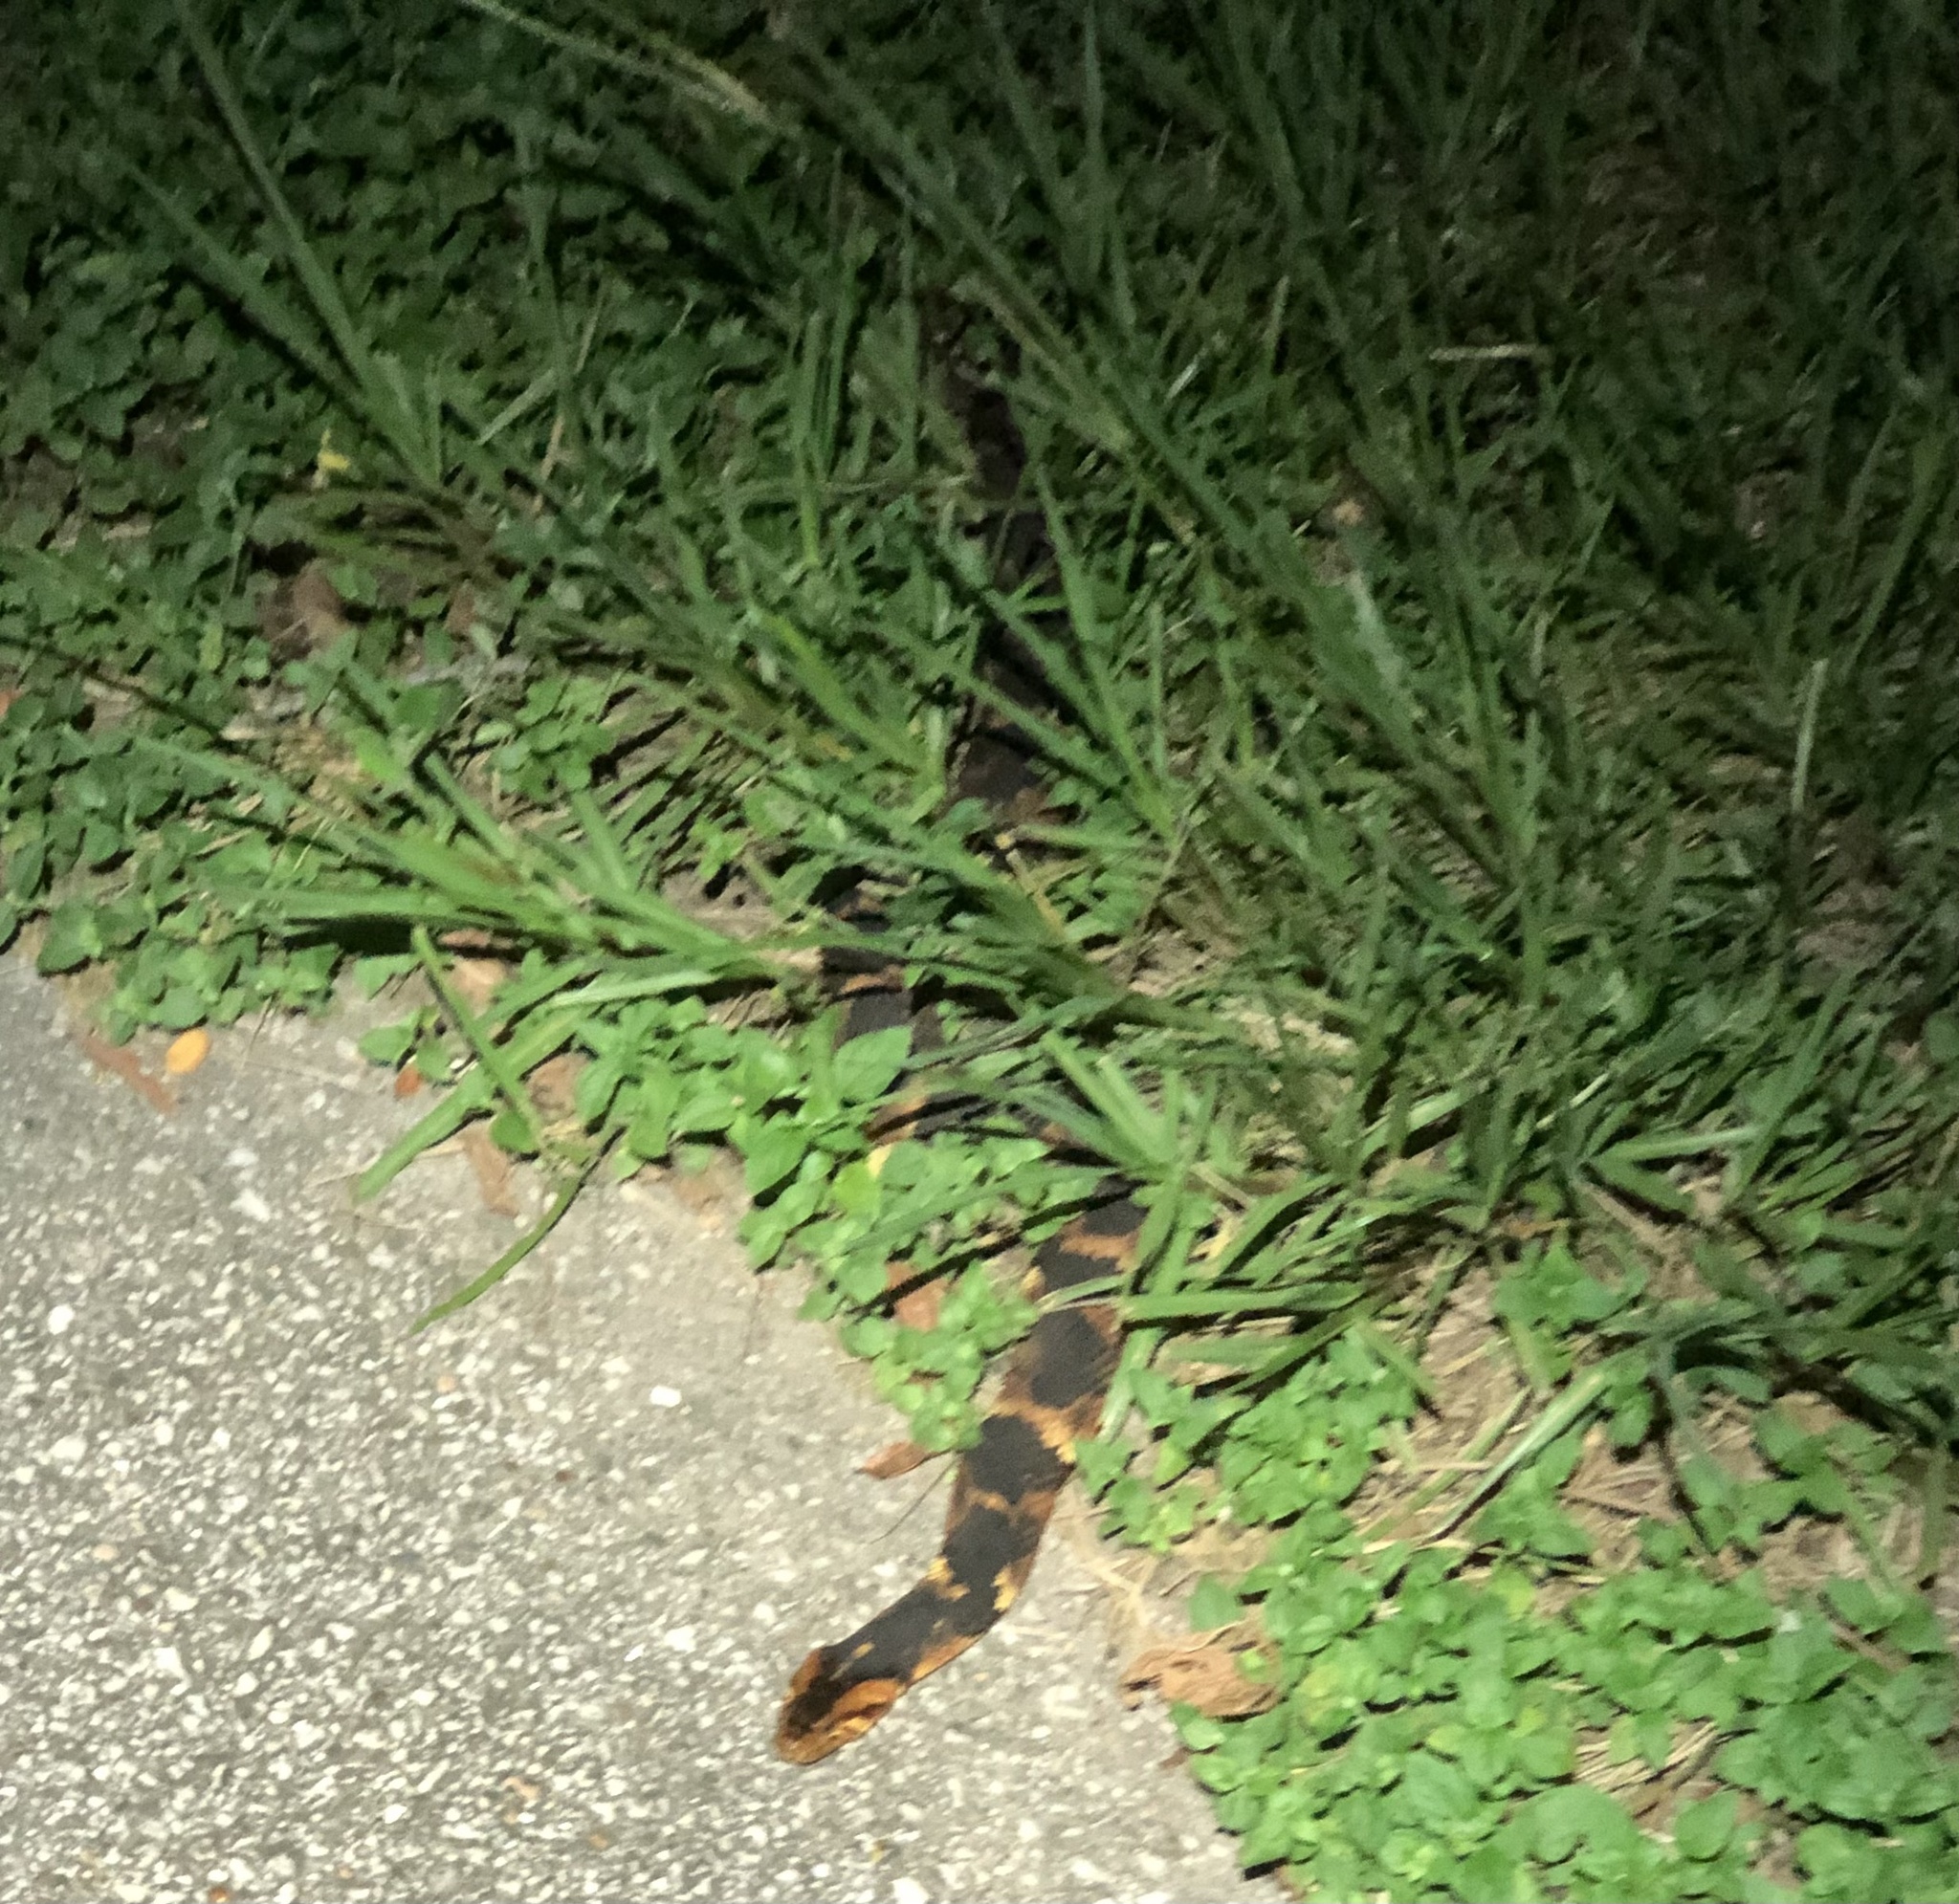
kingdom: Animalia
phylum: Chordata
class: Squamata
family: Colubridae
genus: Nerodia
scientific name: Nerodia fasciata
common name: Southern water snake
